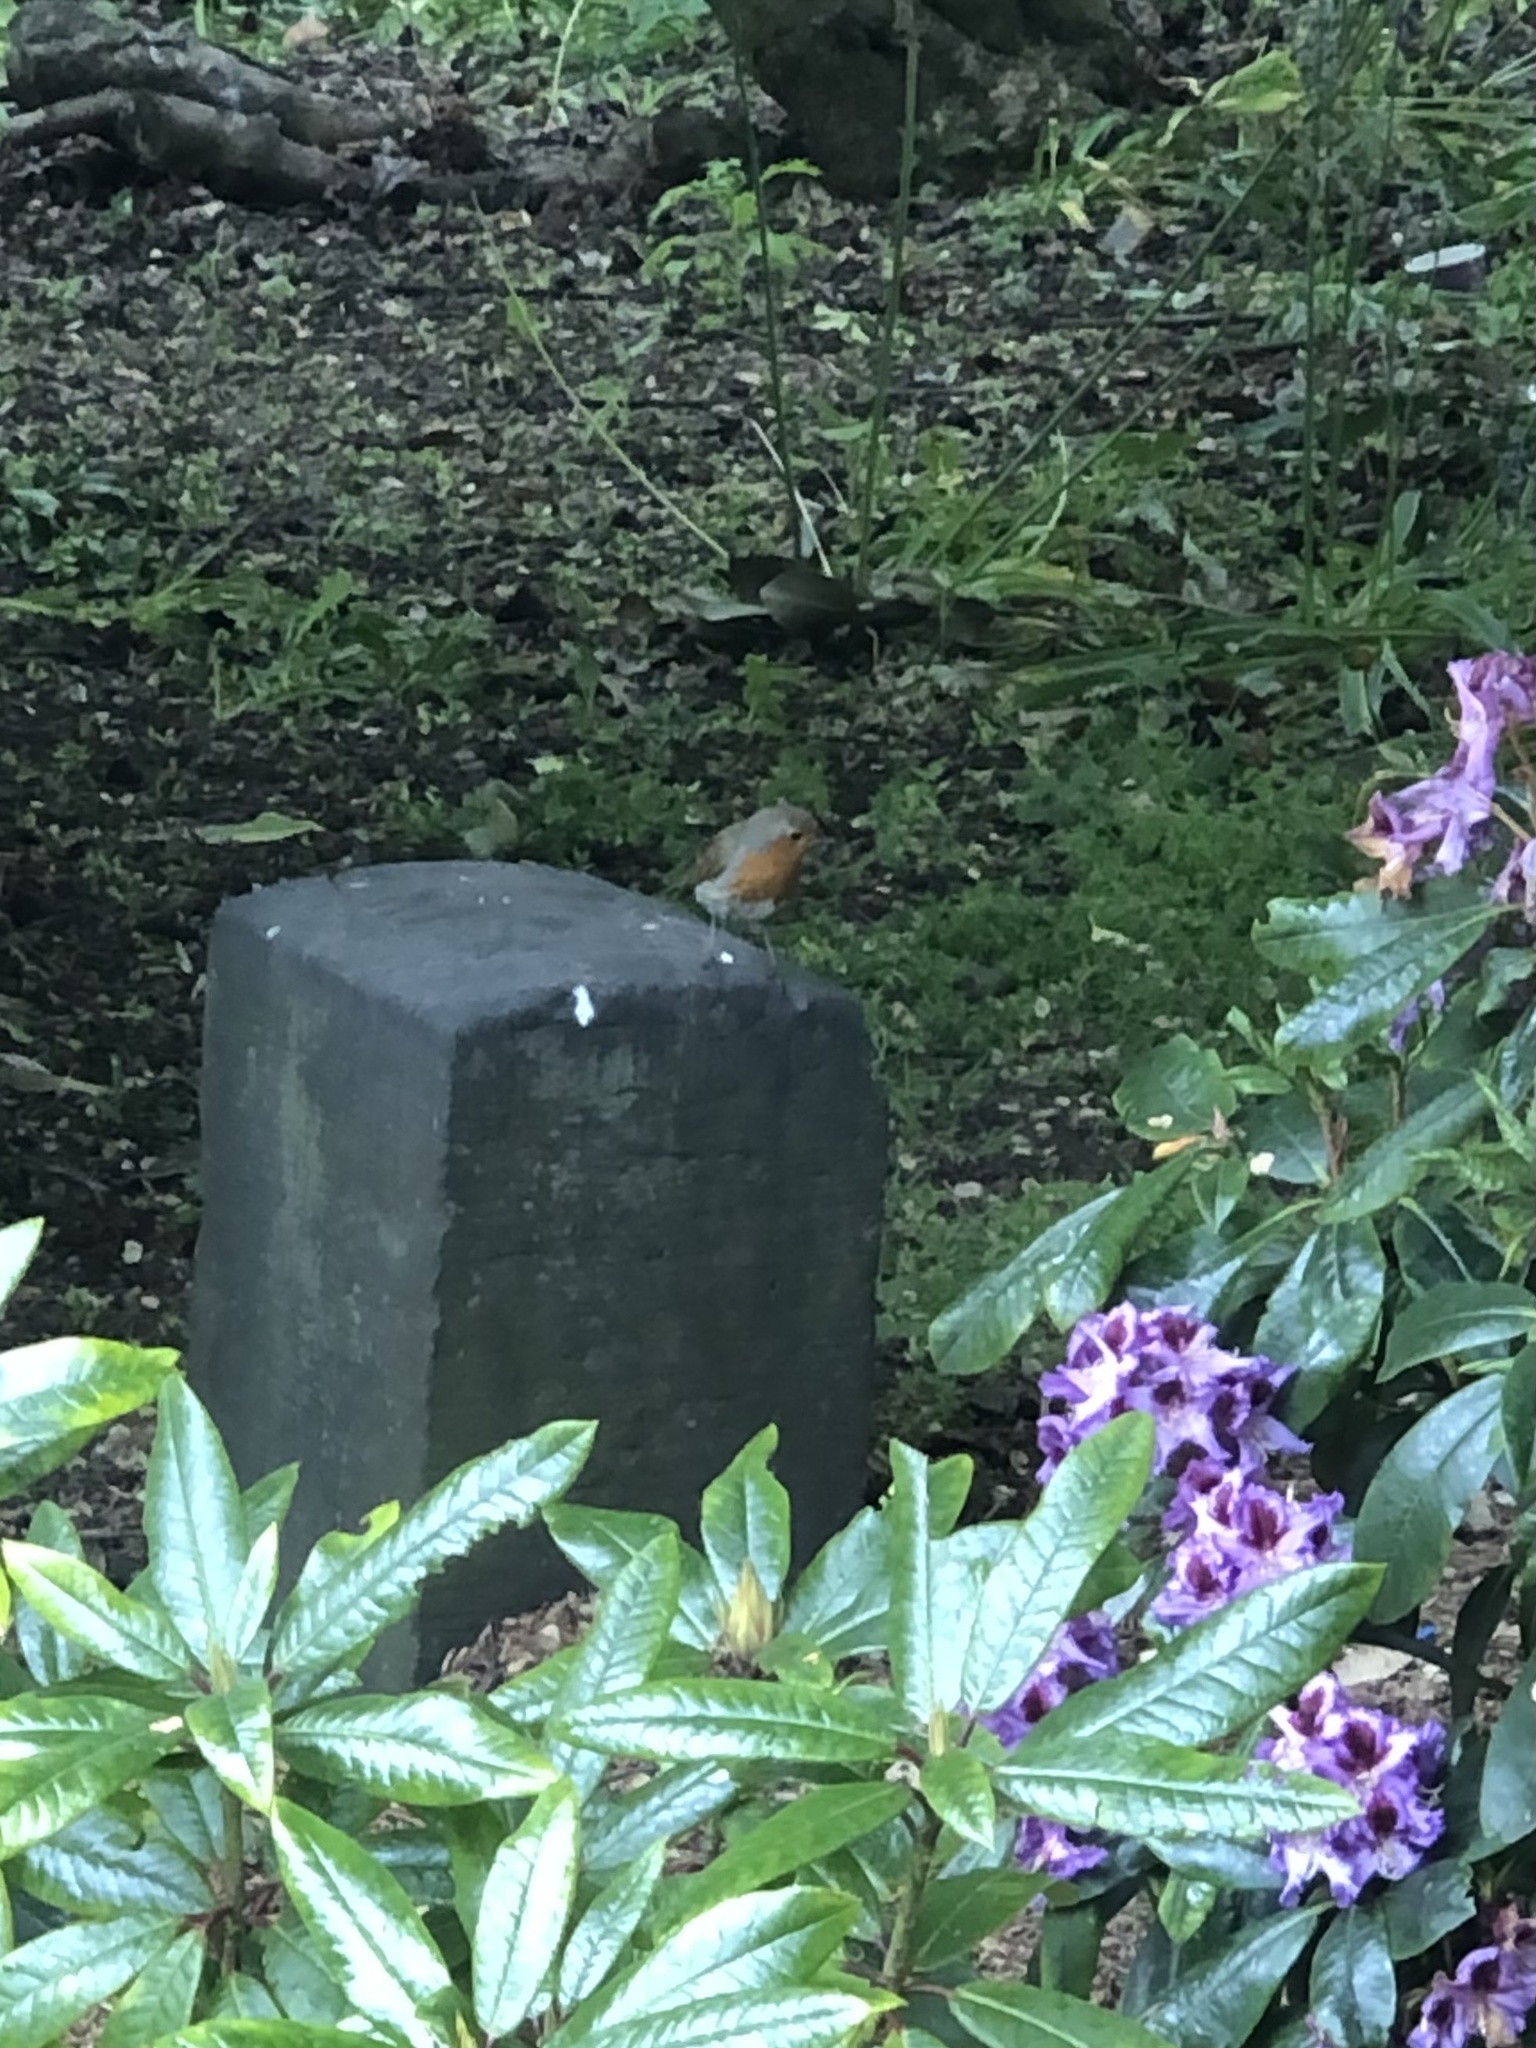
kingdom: Animalia
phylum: Chordata
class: Aves
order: Passeriformes
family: Muscicapidae
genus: Erithacus
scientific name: Erithacus rubecula
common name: European robin
